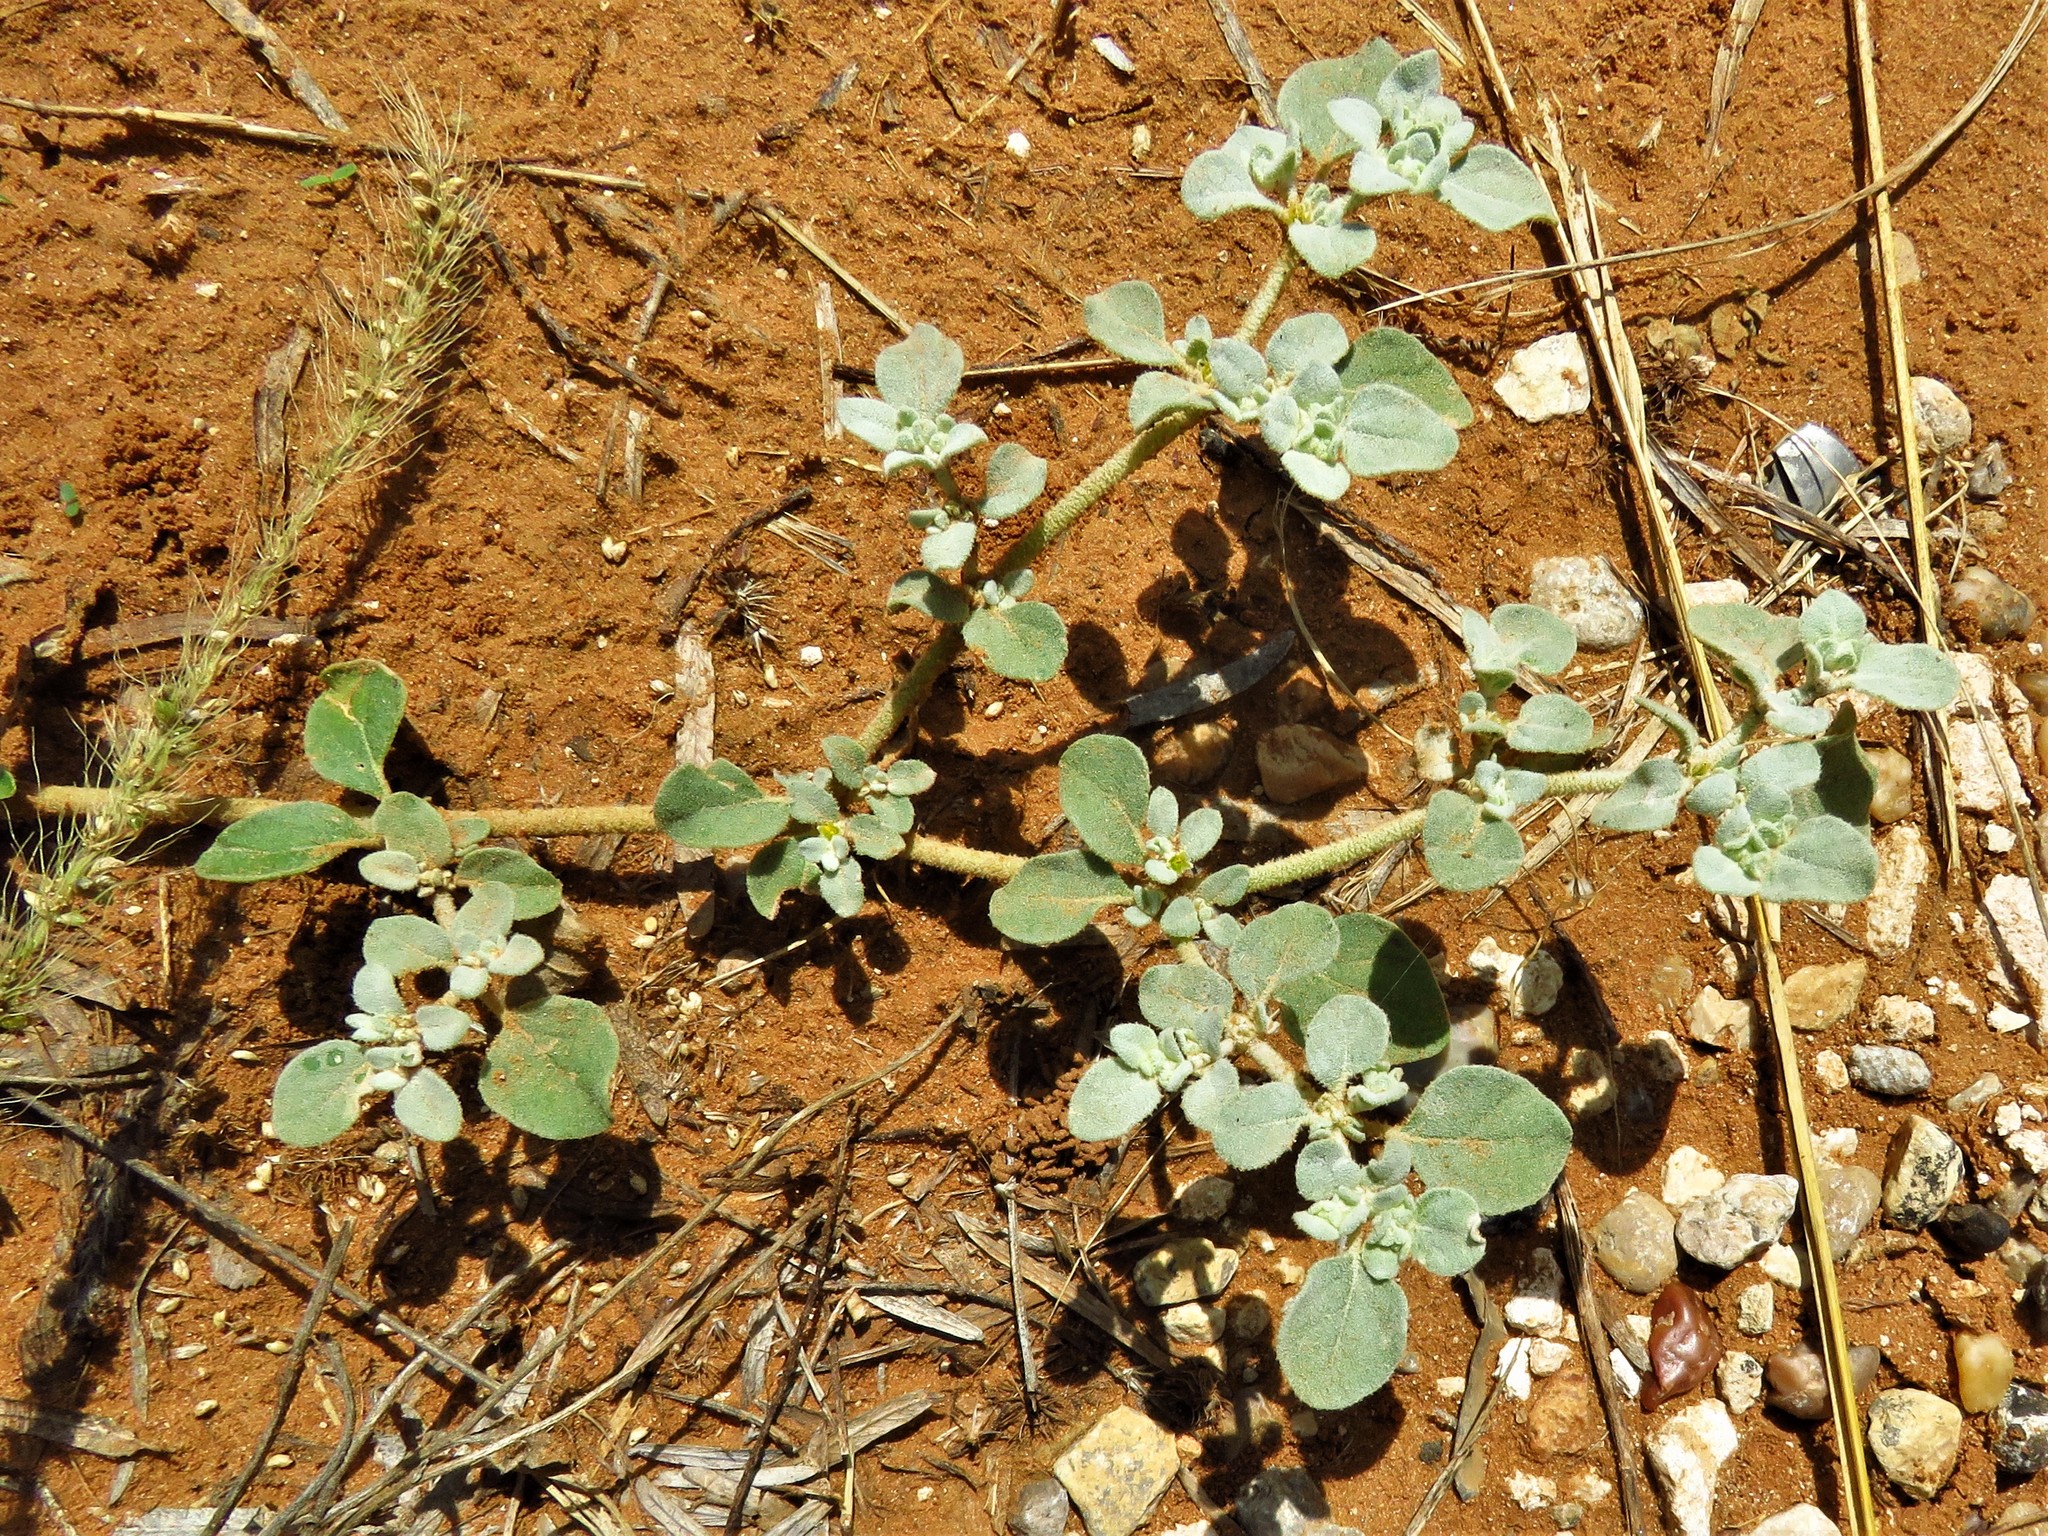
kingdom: Plantae
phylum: Tracheophyta
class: Magnoliopsida
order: Caryophyllales
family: Amaranthaceae
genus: Tidestromia
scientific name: Tidestromia lanuginosa
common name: Woolly tidestromia
